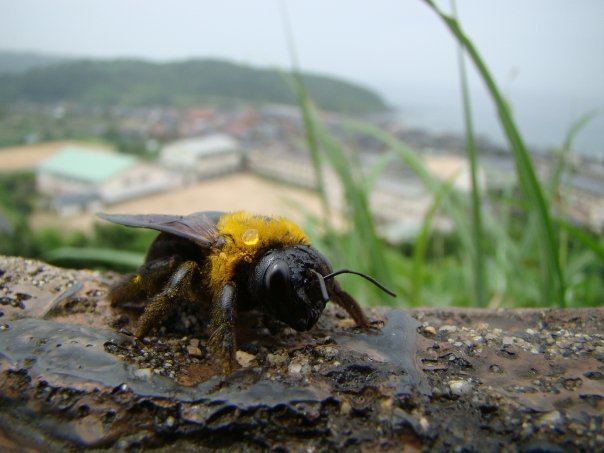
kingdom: Animalia
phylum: Arthropoda
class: Insecta
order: Hymenoptera
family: Apidae
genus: Xylocopa
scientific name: Xylocopa appendiculata
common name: Japanese carpenter bee
